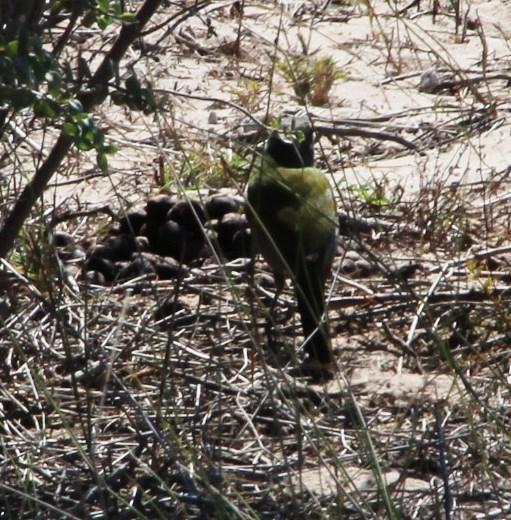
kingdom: Animalia
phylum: Chordata
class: Aves
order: Passeriformes
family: Malaconotidae
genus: Telophorus
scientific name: Telophorus zeylonus
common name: Bokmakierie
